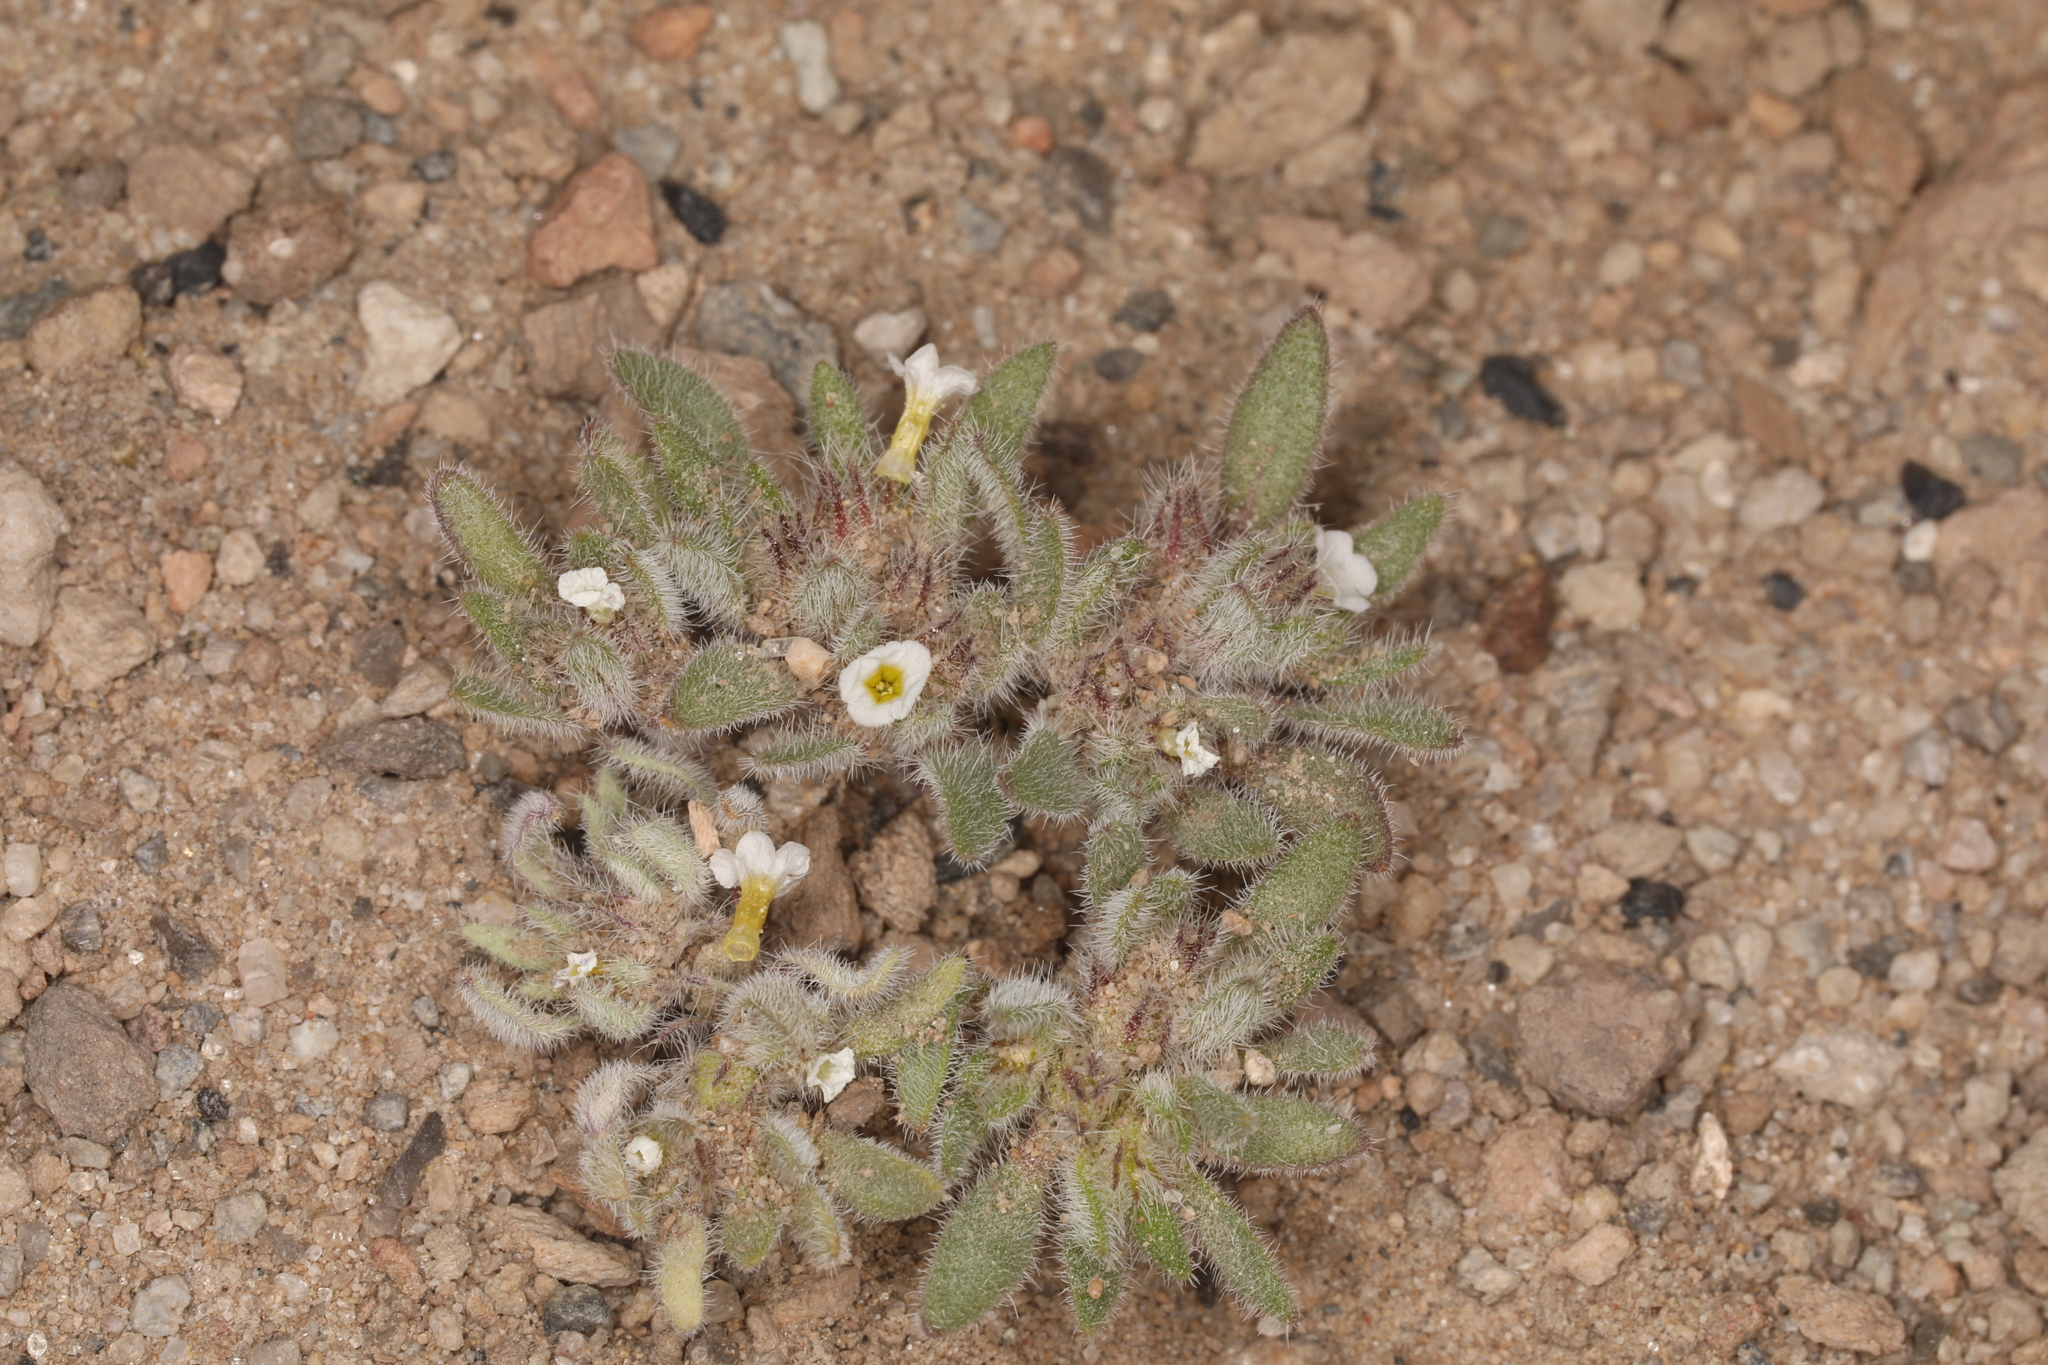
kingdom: Plantae
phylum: Tracheophyta
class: Magnoliopsida
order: Boraginales
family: Namaceae
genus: Nama
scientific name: Nama densa
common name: Leafy nama
